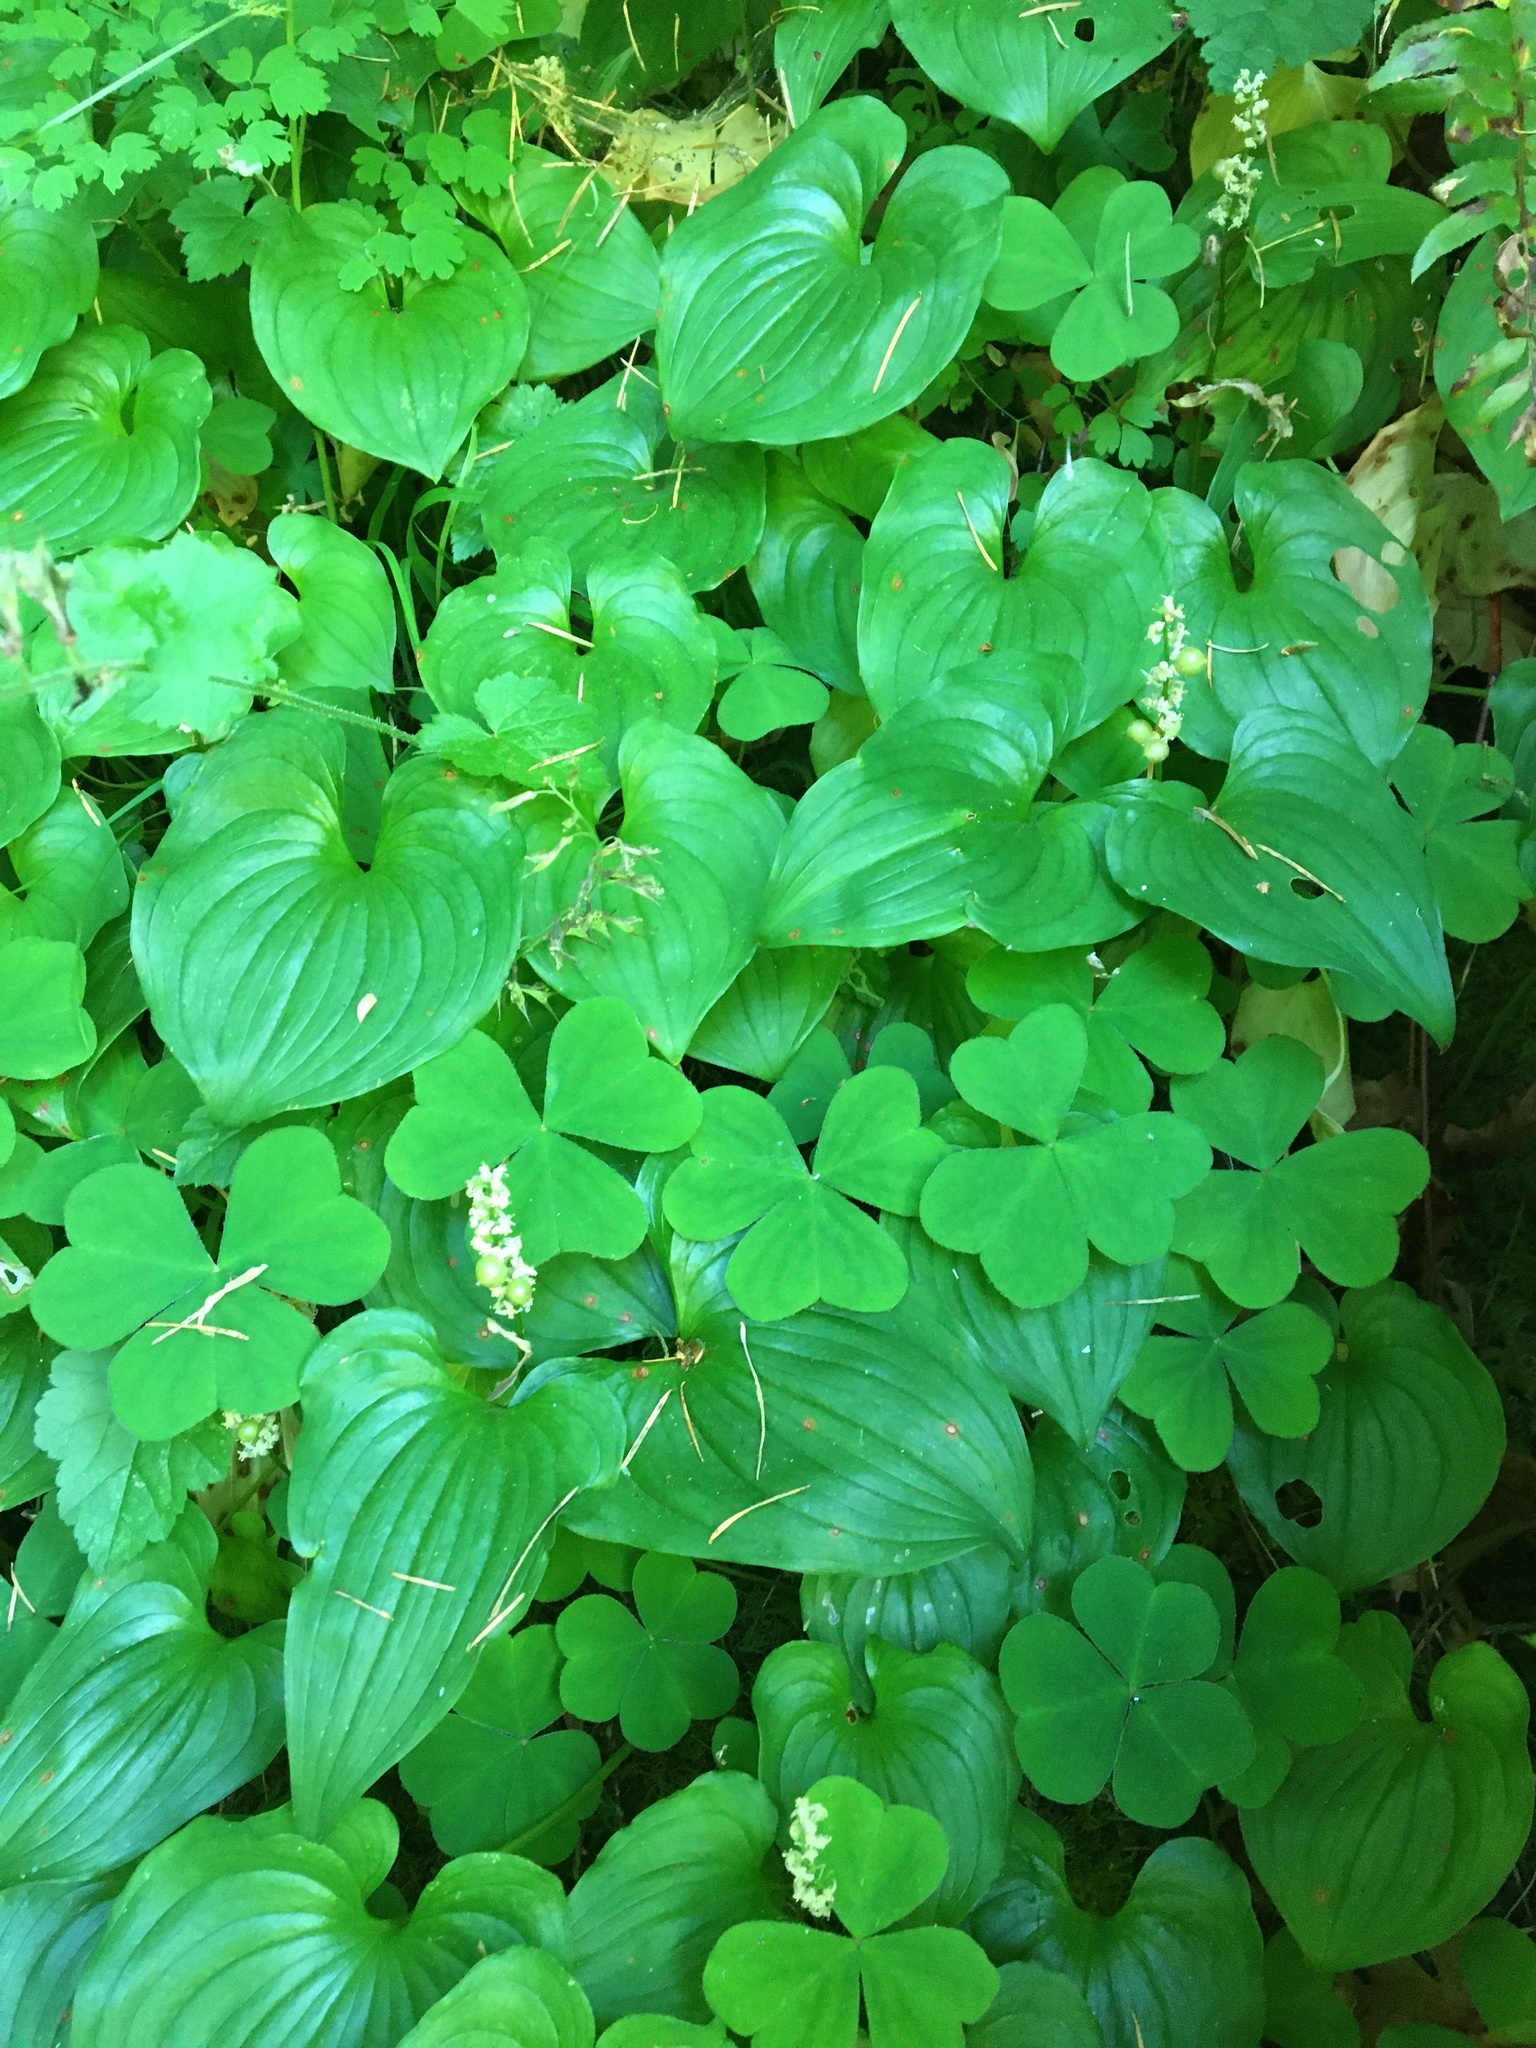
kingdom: Plantae
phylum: Tracheophyta
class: Liliopsida
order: Asparagales
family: Asparagaceae
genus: Maianthemum
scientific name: Maianthemum dilatatum
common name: False lily-of-the-valley
